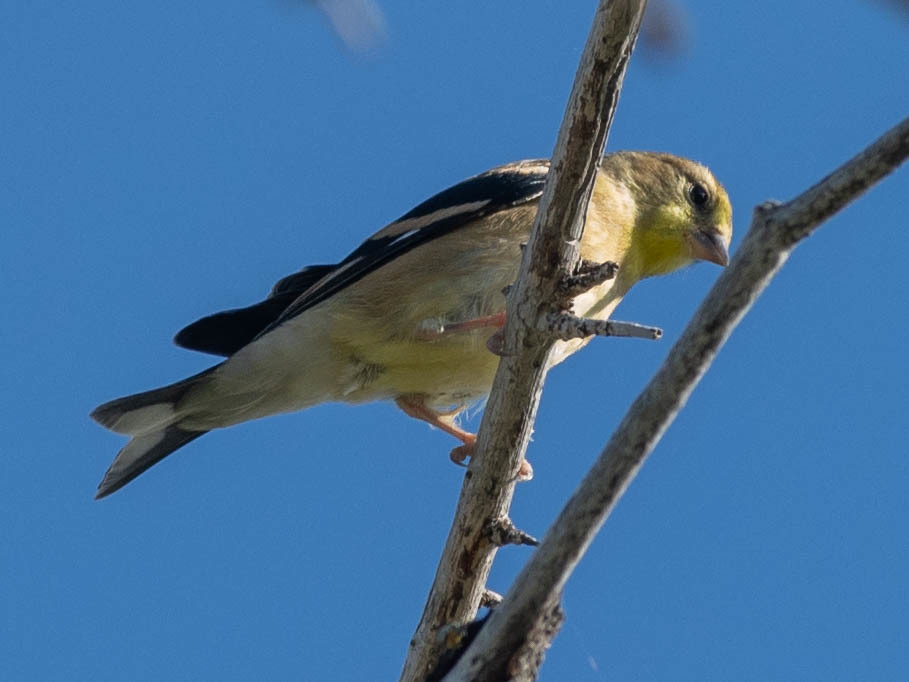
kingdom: Animalia
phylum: Chordata
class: Aves
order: Passeriformes
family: Fringillidae
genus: Spinus
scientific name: Spinus tristis
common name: American goldfinch
